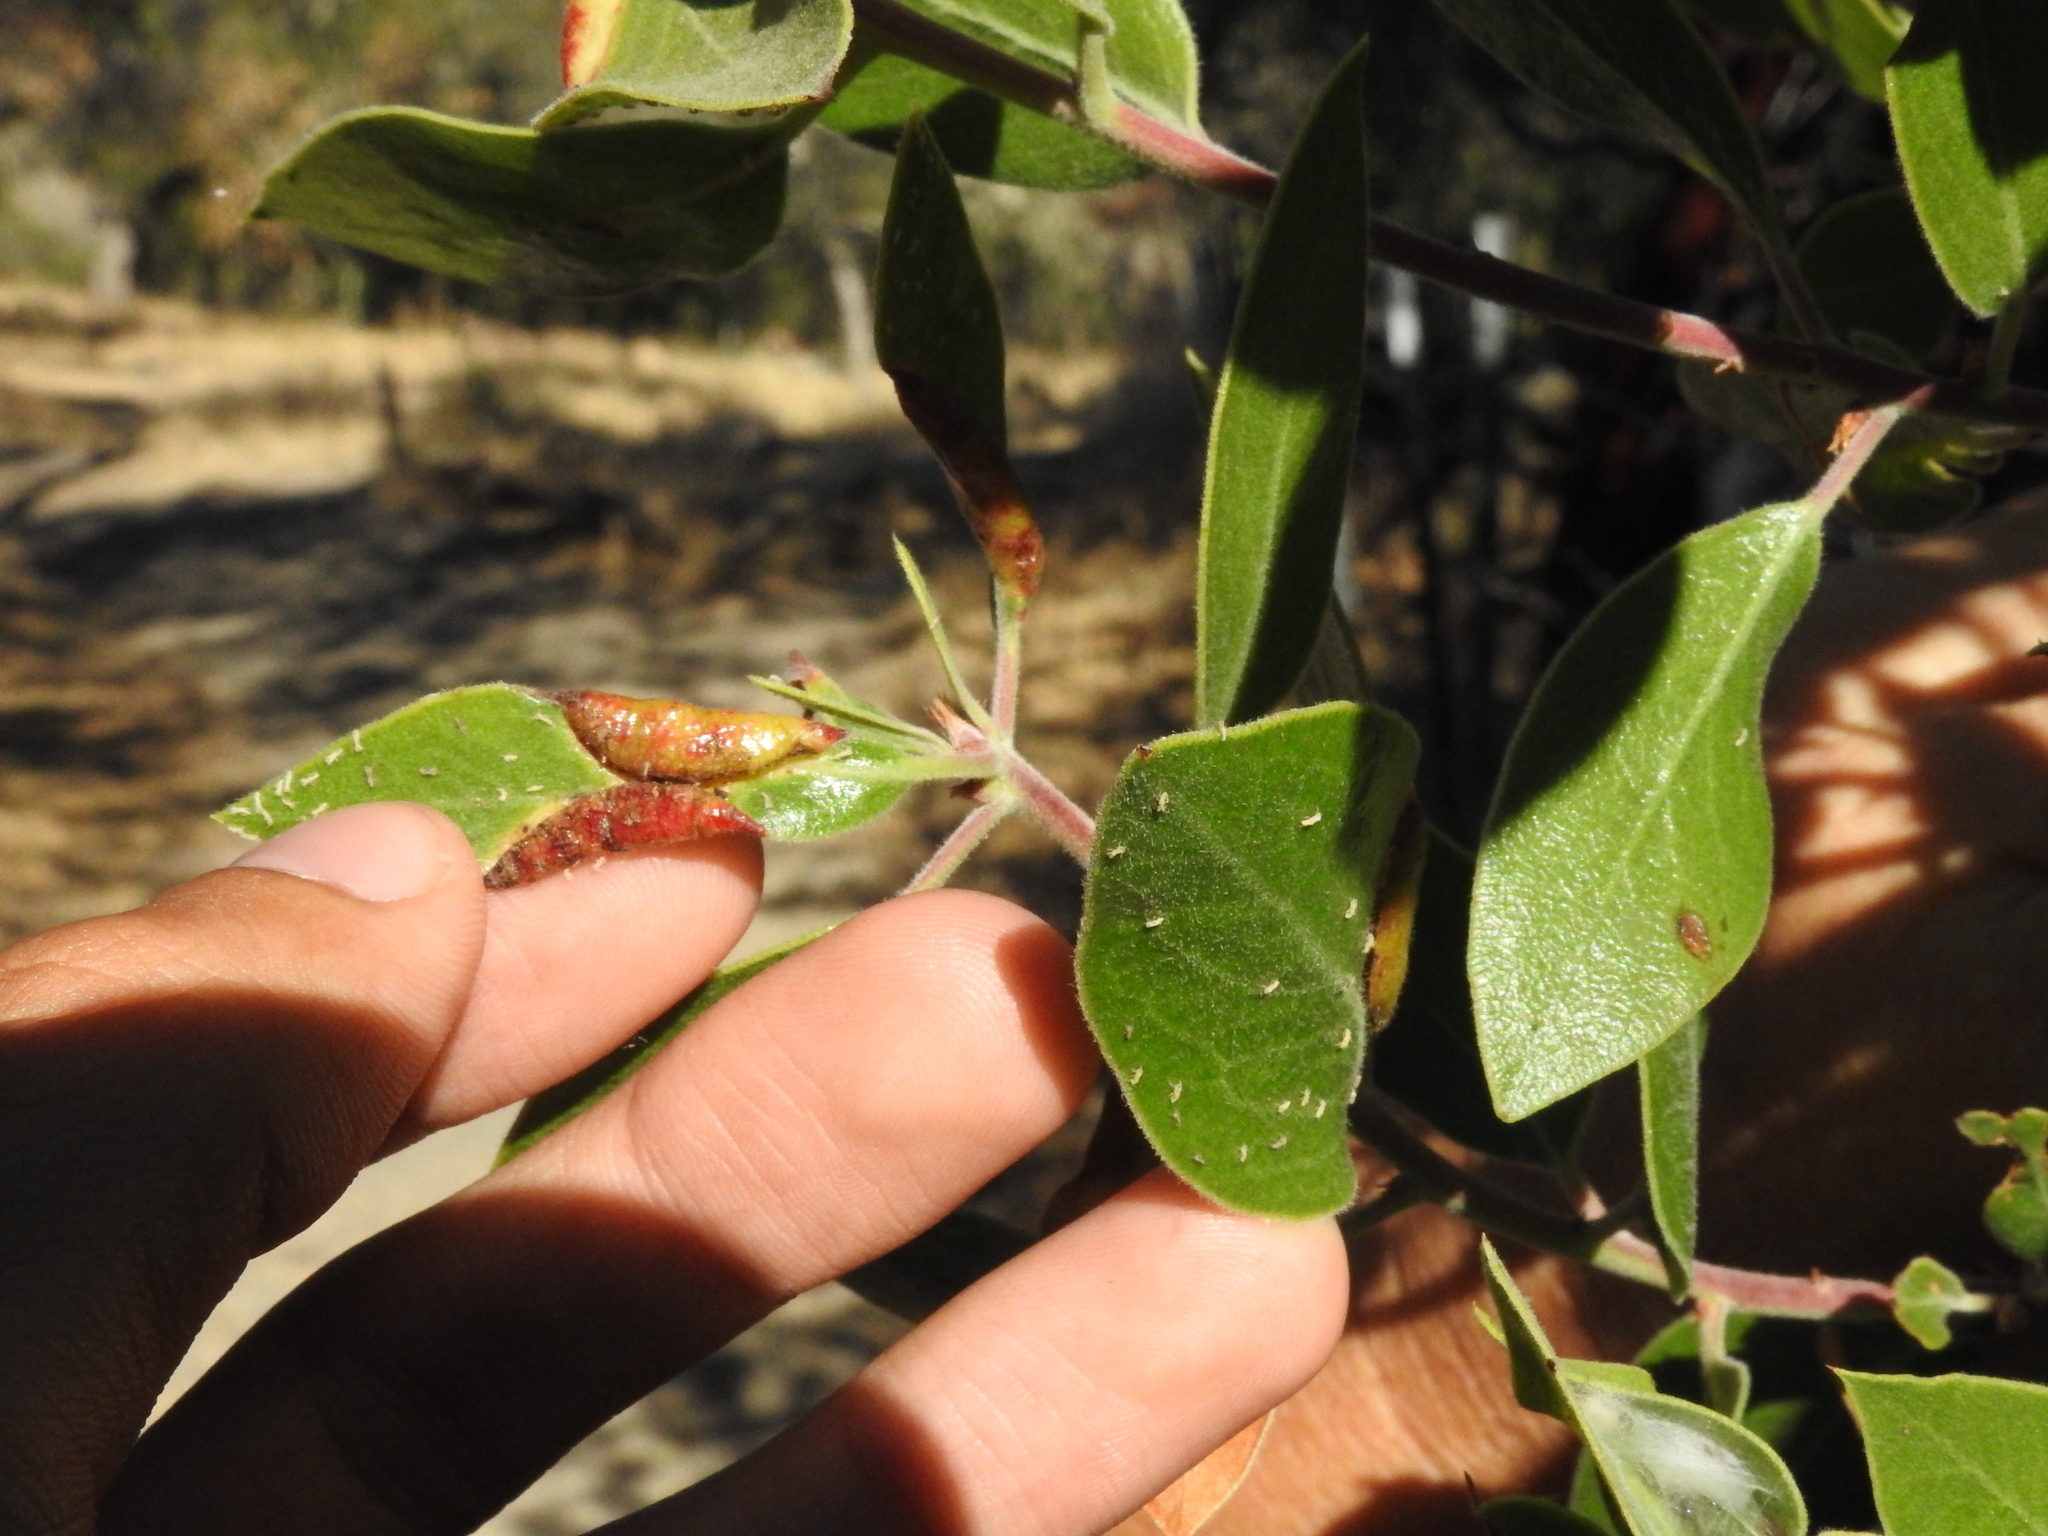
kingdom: Animalia
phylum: Arthropoda
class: Insecta
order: Hemiptera
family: Aphididae
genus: Tamalia
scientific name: Tamalia coweni
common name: Manzanita leafgall aphid
